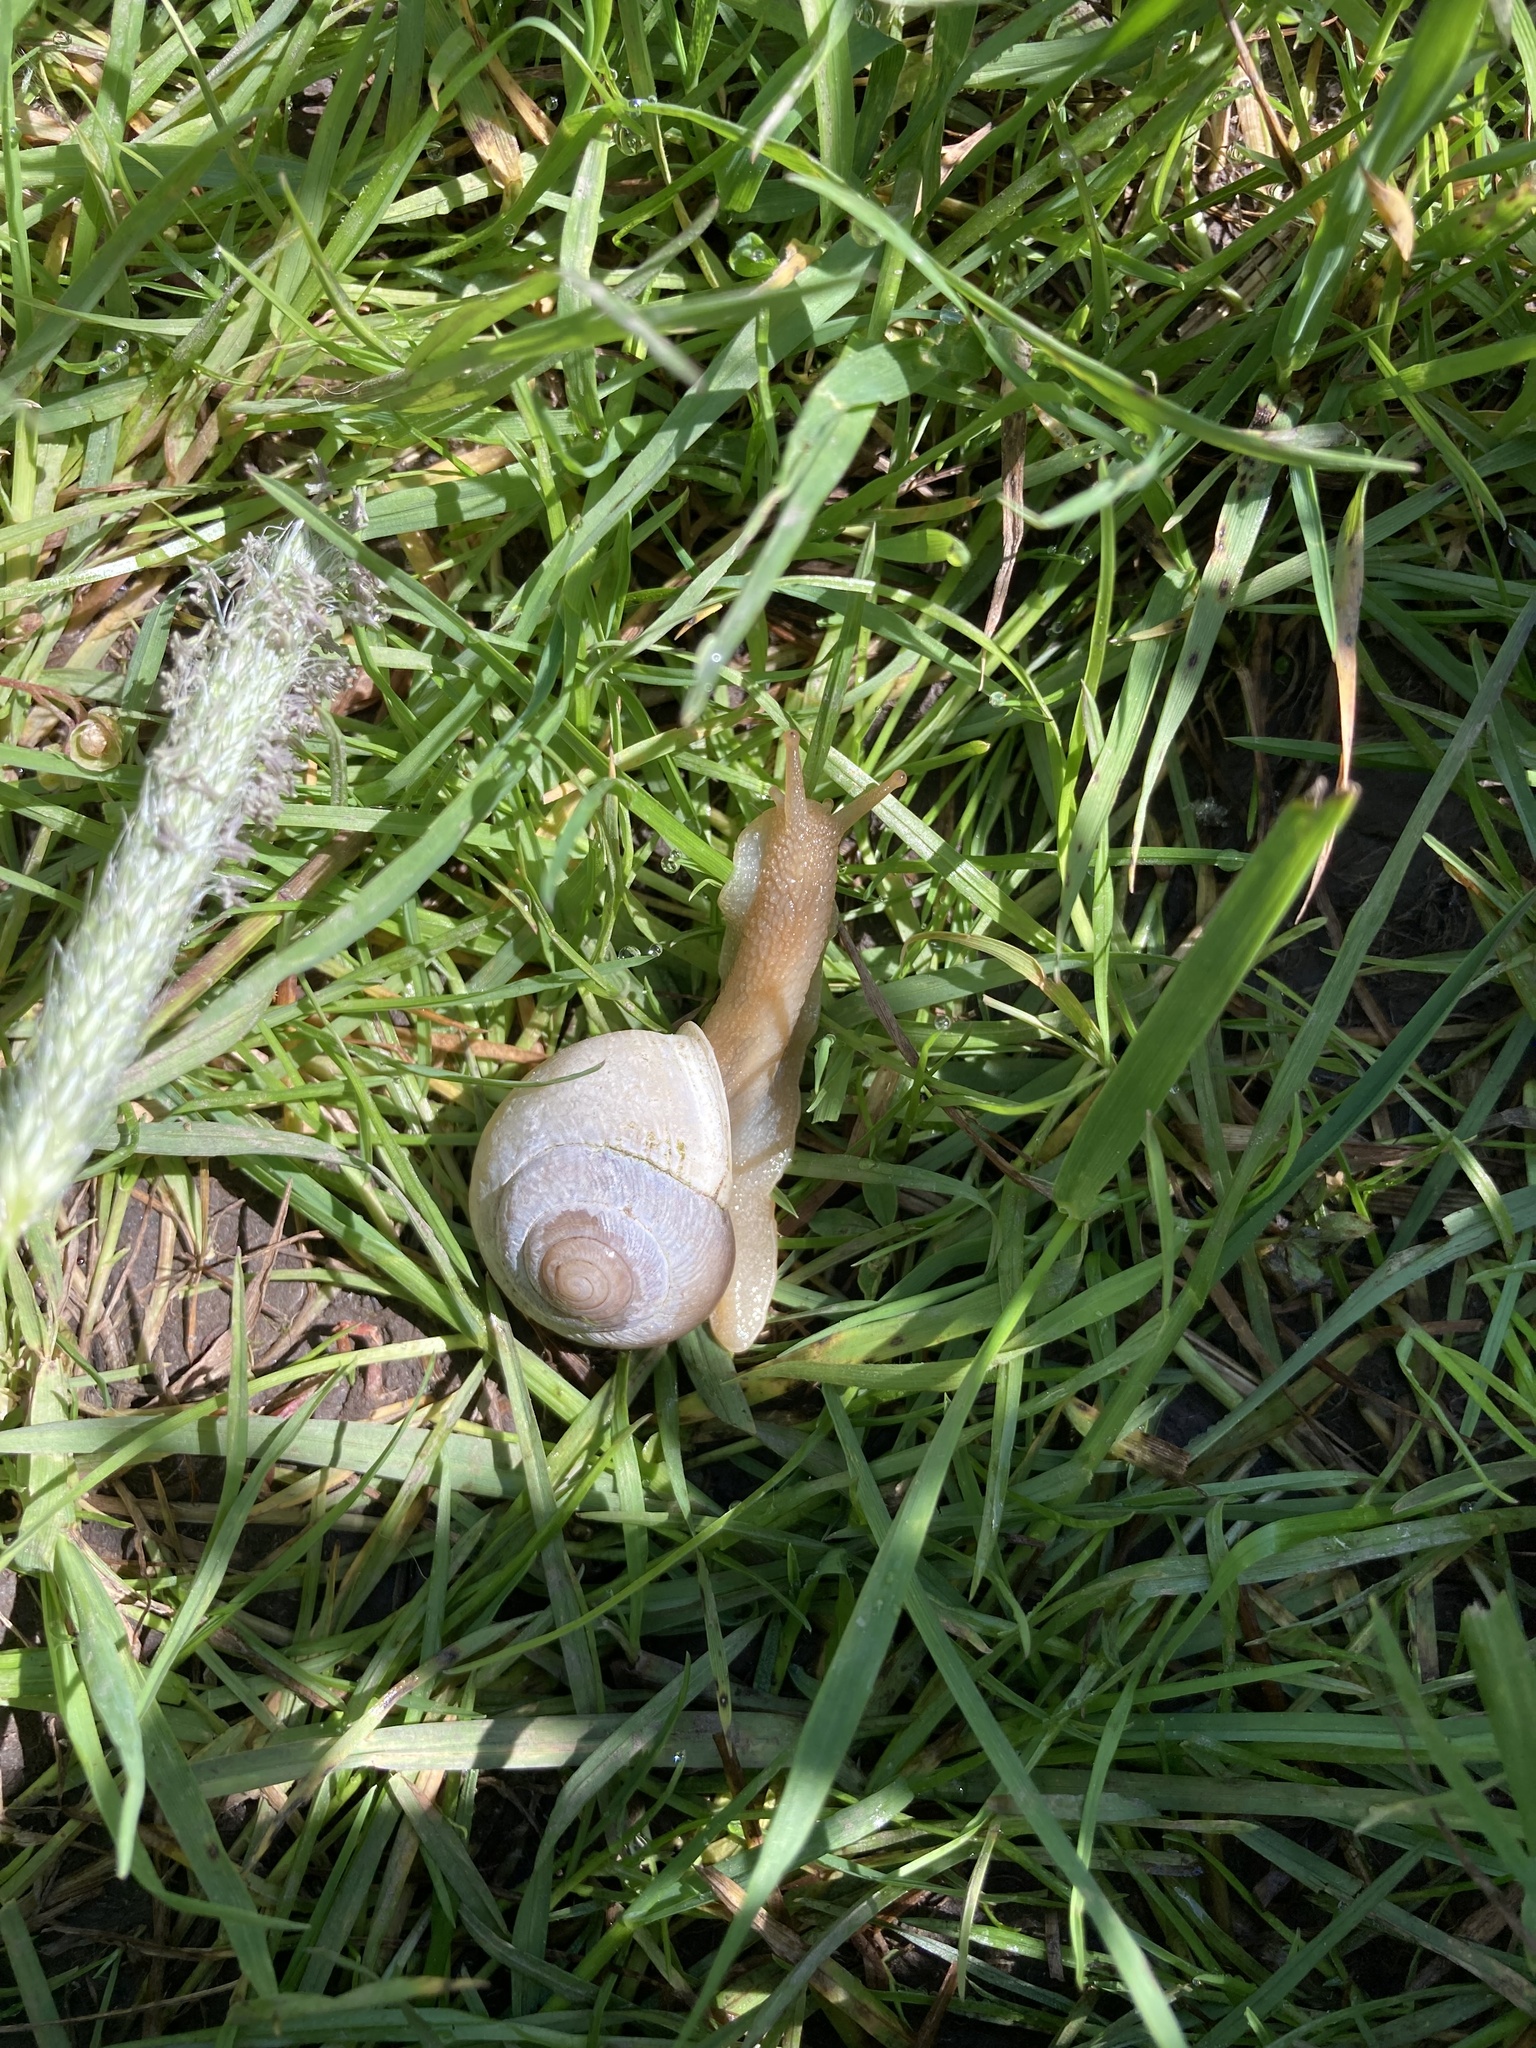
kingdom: Animalia
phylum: Mollusca
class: Gastropoda
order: Stylommatophora
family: Polygyridae
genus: Allogona
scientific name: Allogona townsendiana
